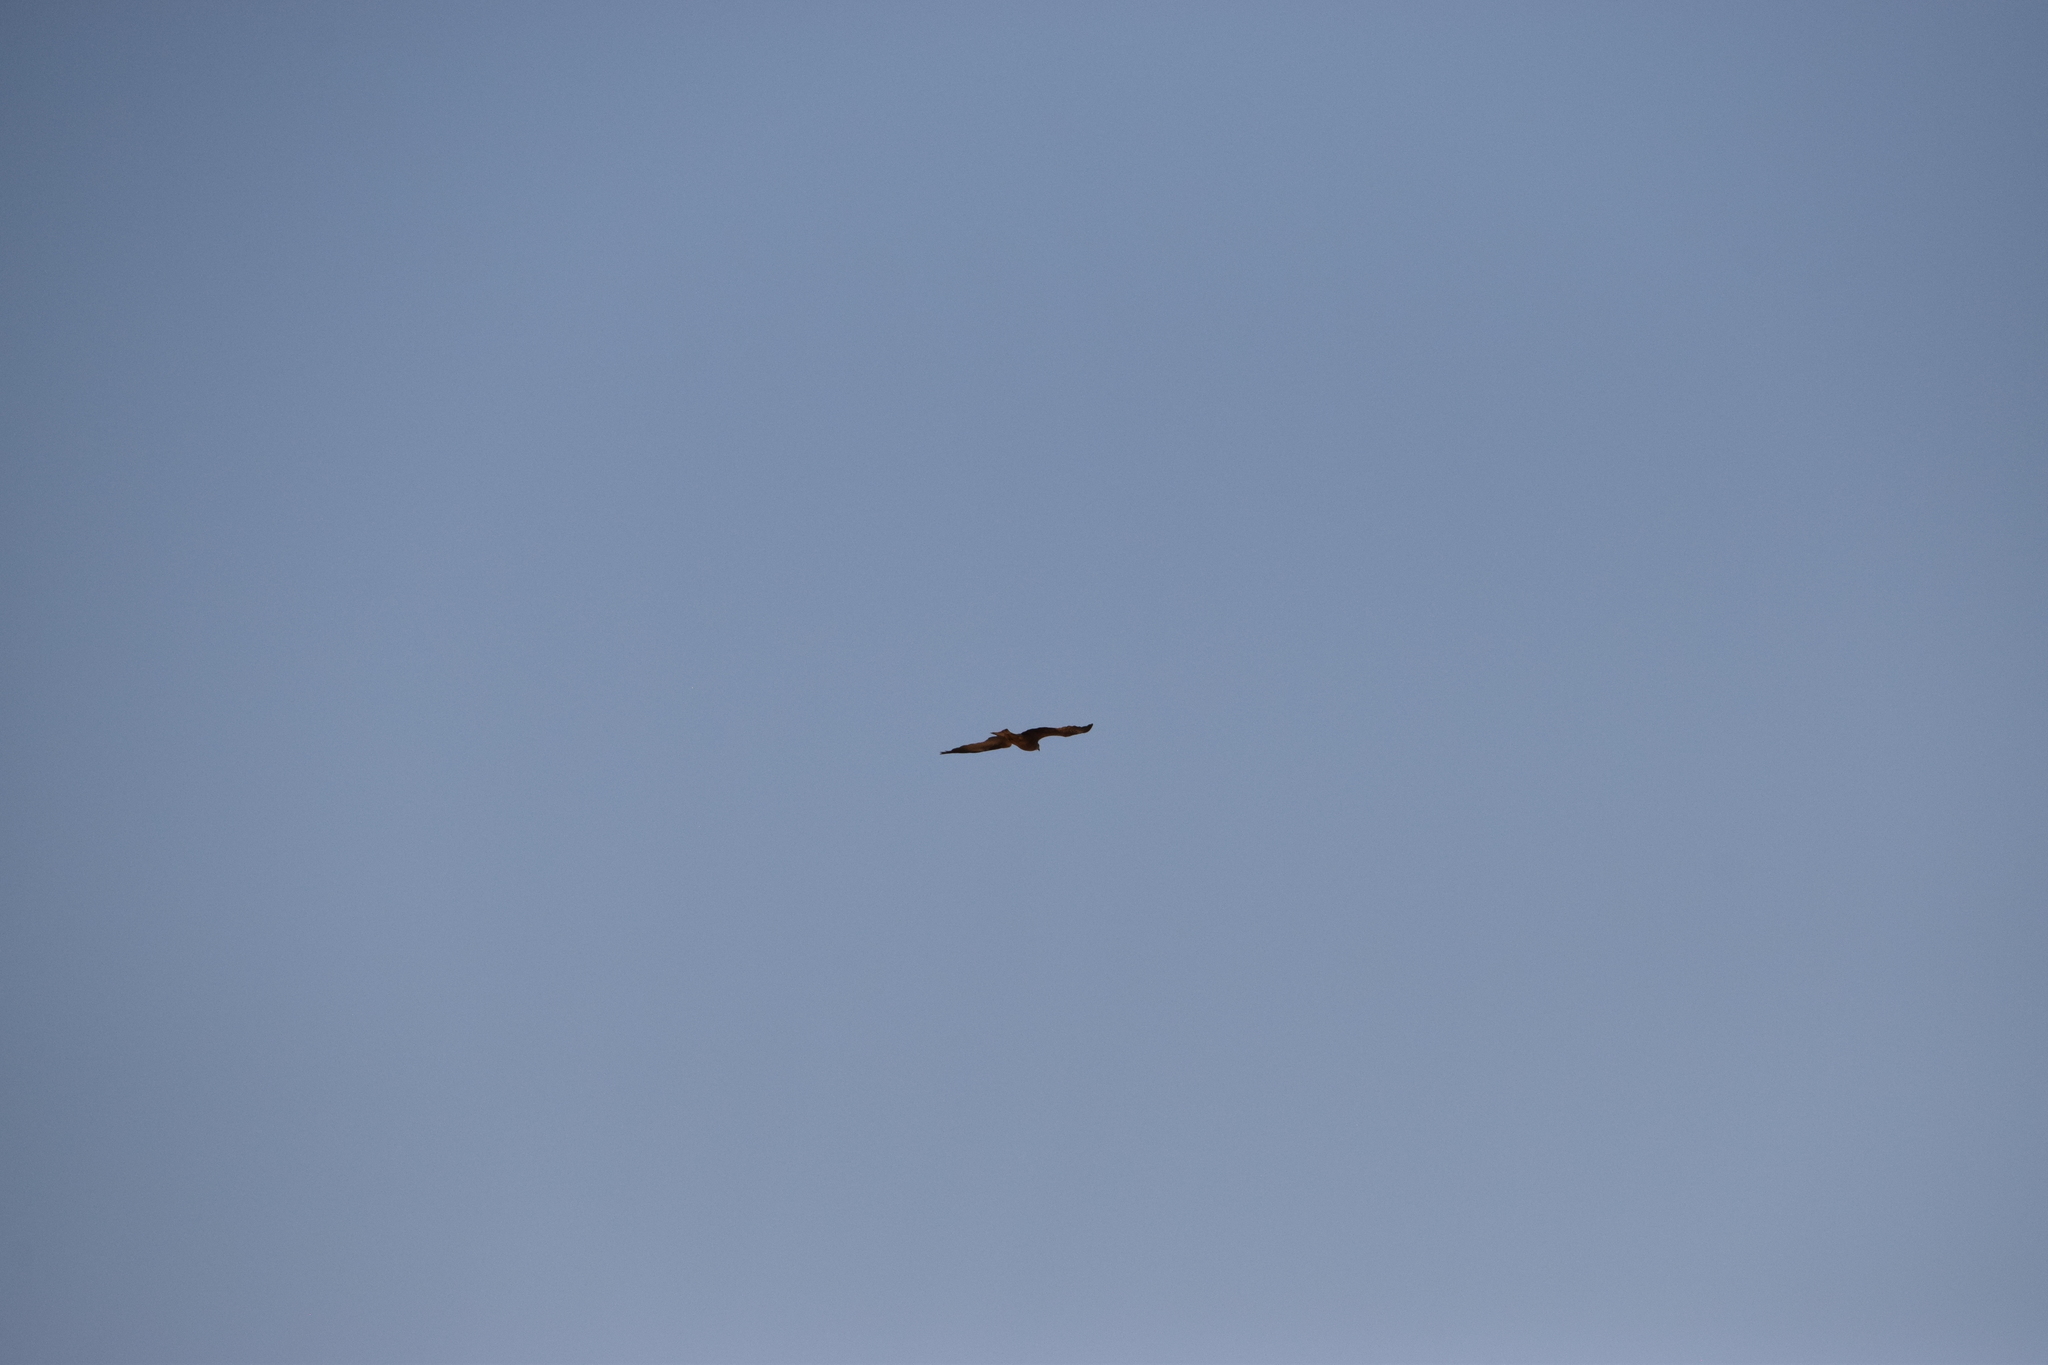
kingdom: Animalia
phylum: Chordata
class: Aves
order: Accipitriformes
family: Accipitridae
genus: Milvus
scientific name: Milvus migrans
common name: Black kite
